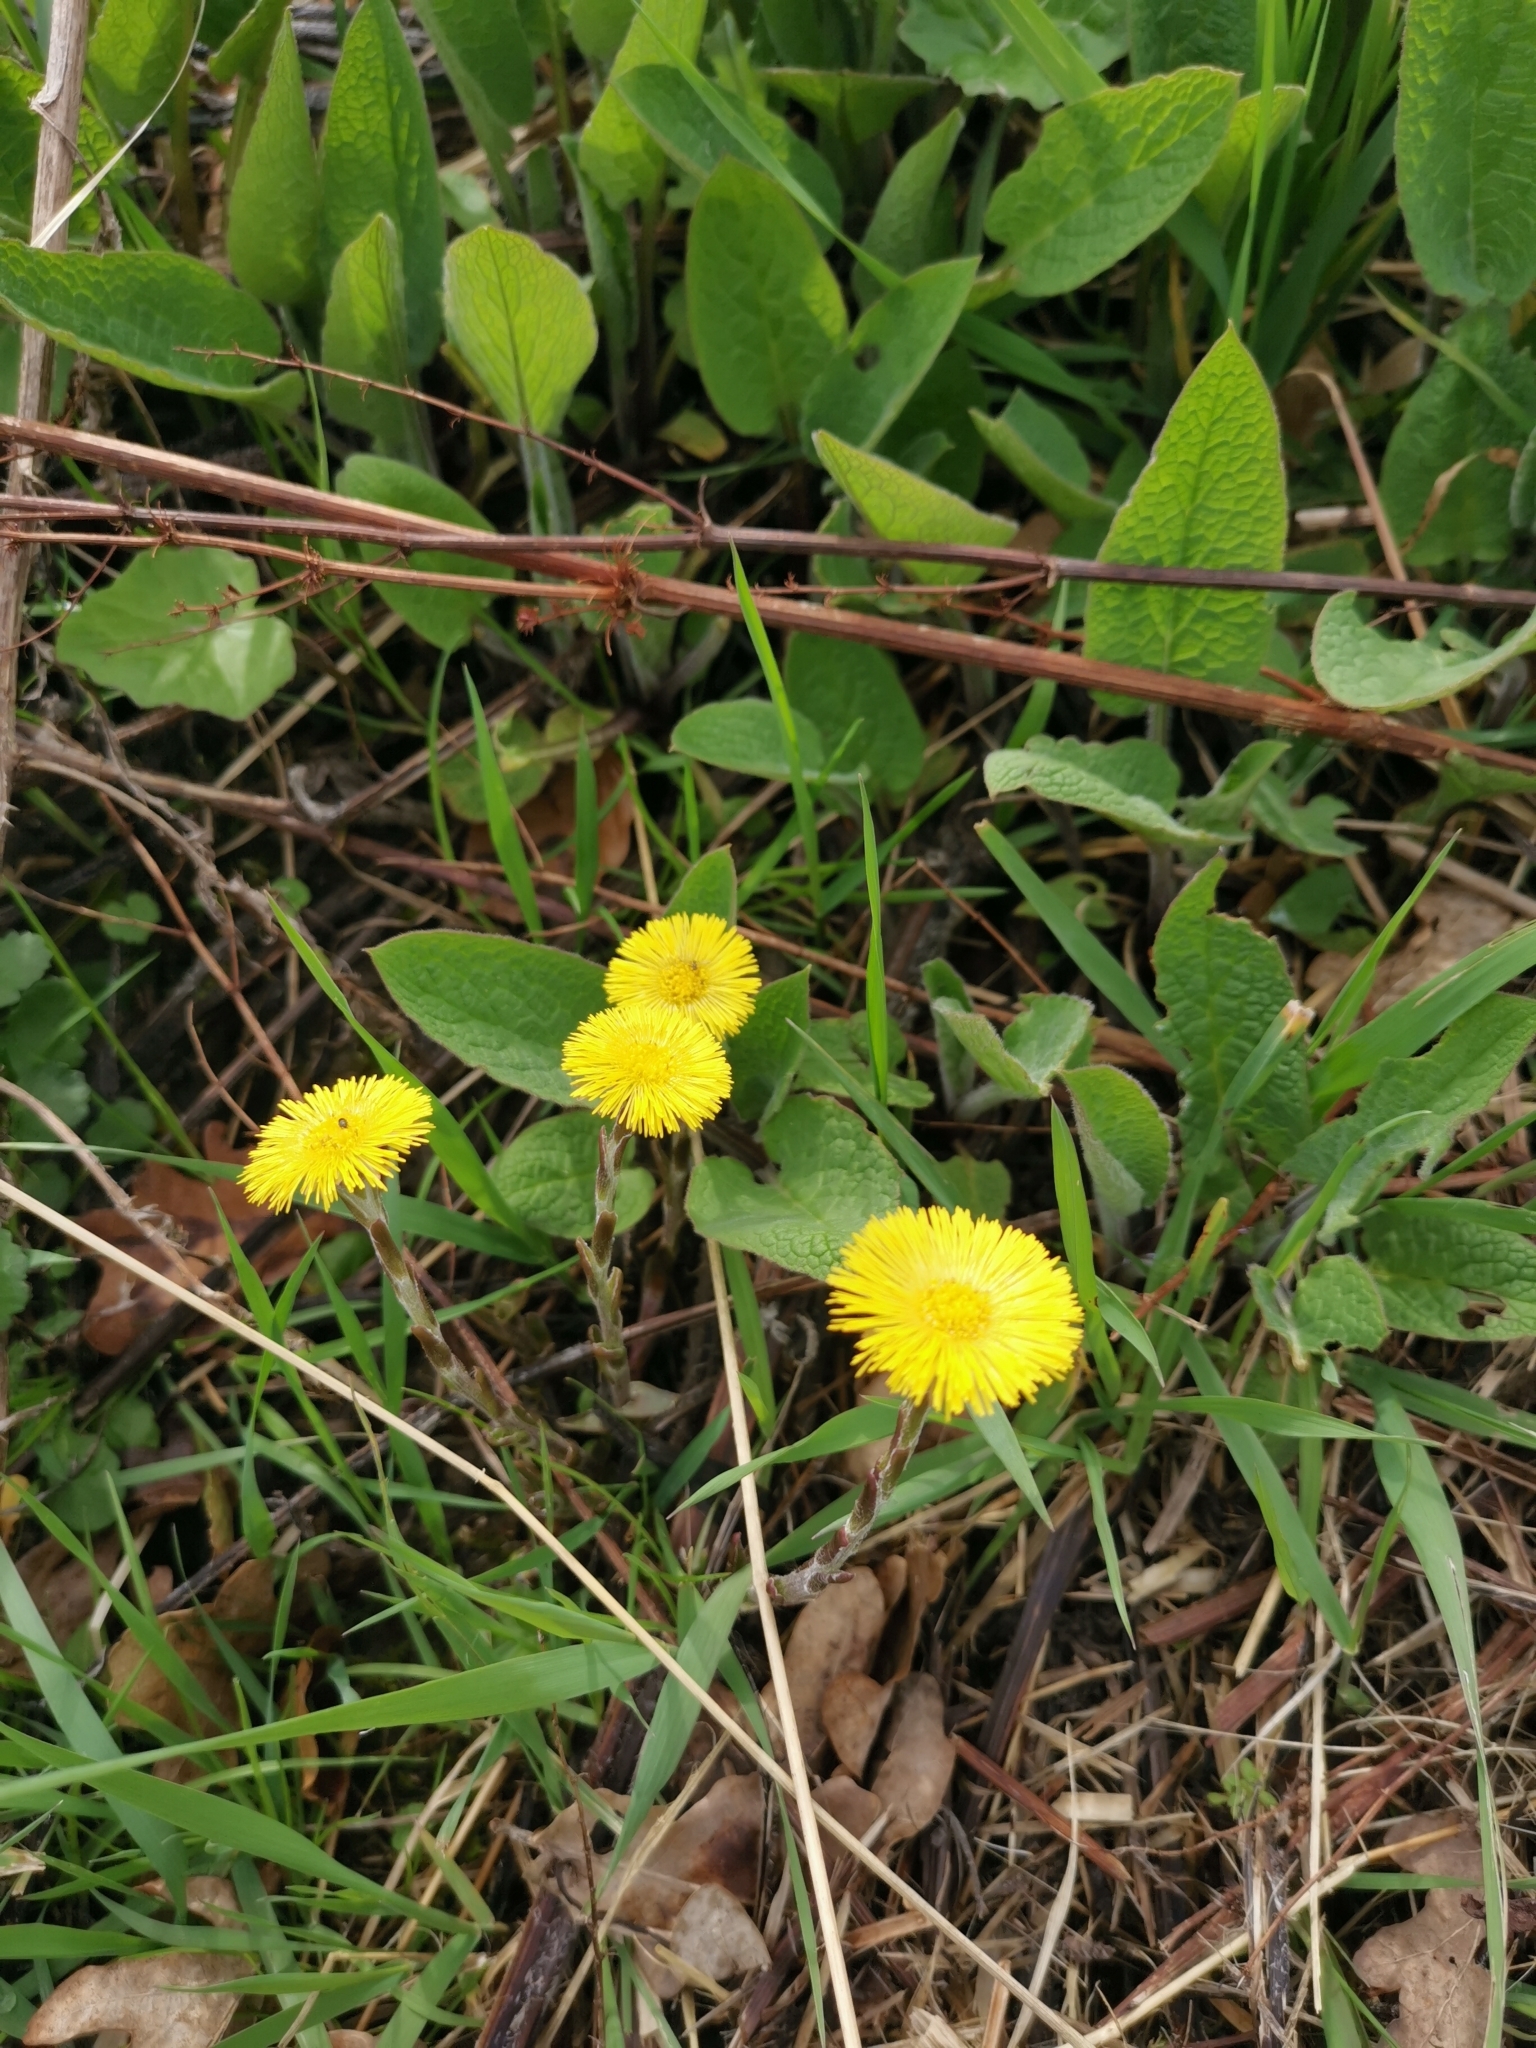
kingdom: Plantae
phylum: Tracheophyta
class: Magnoliopsida
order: Asterales
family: Asteraceae
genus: Tussilago
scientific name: Tussilago farfara
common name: Coltsfoot
